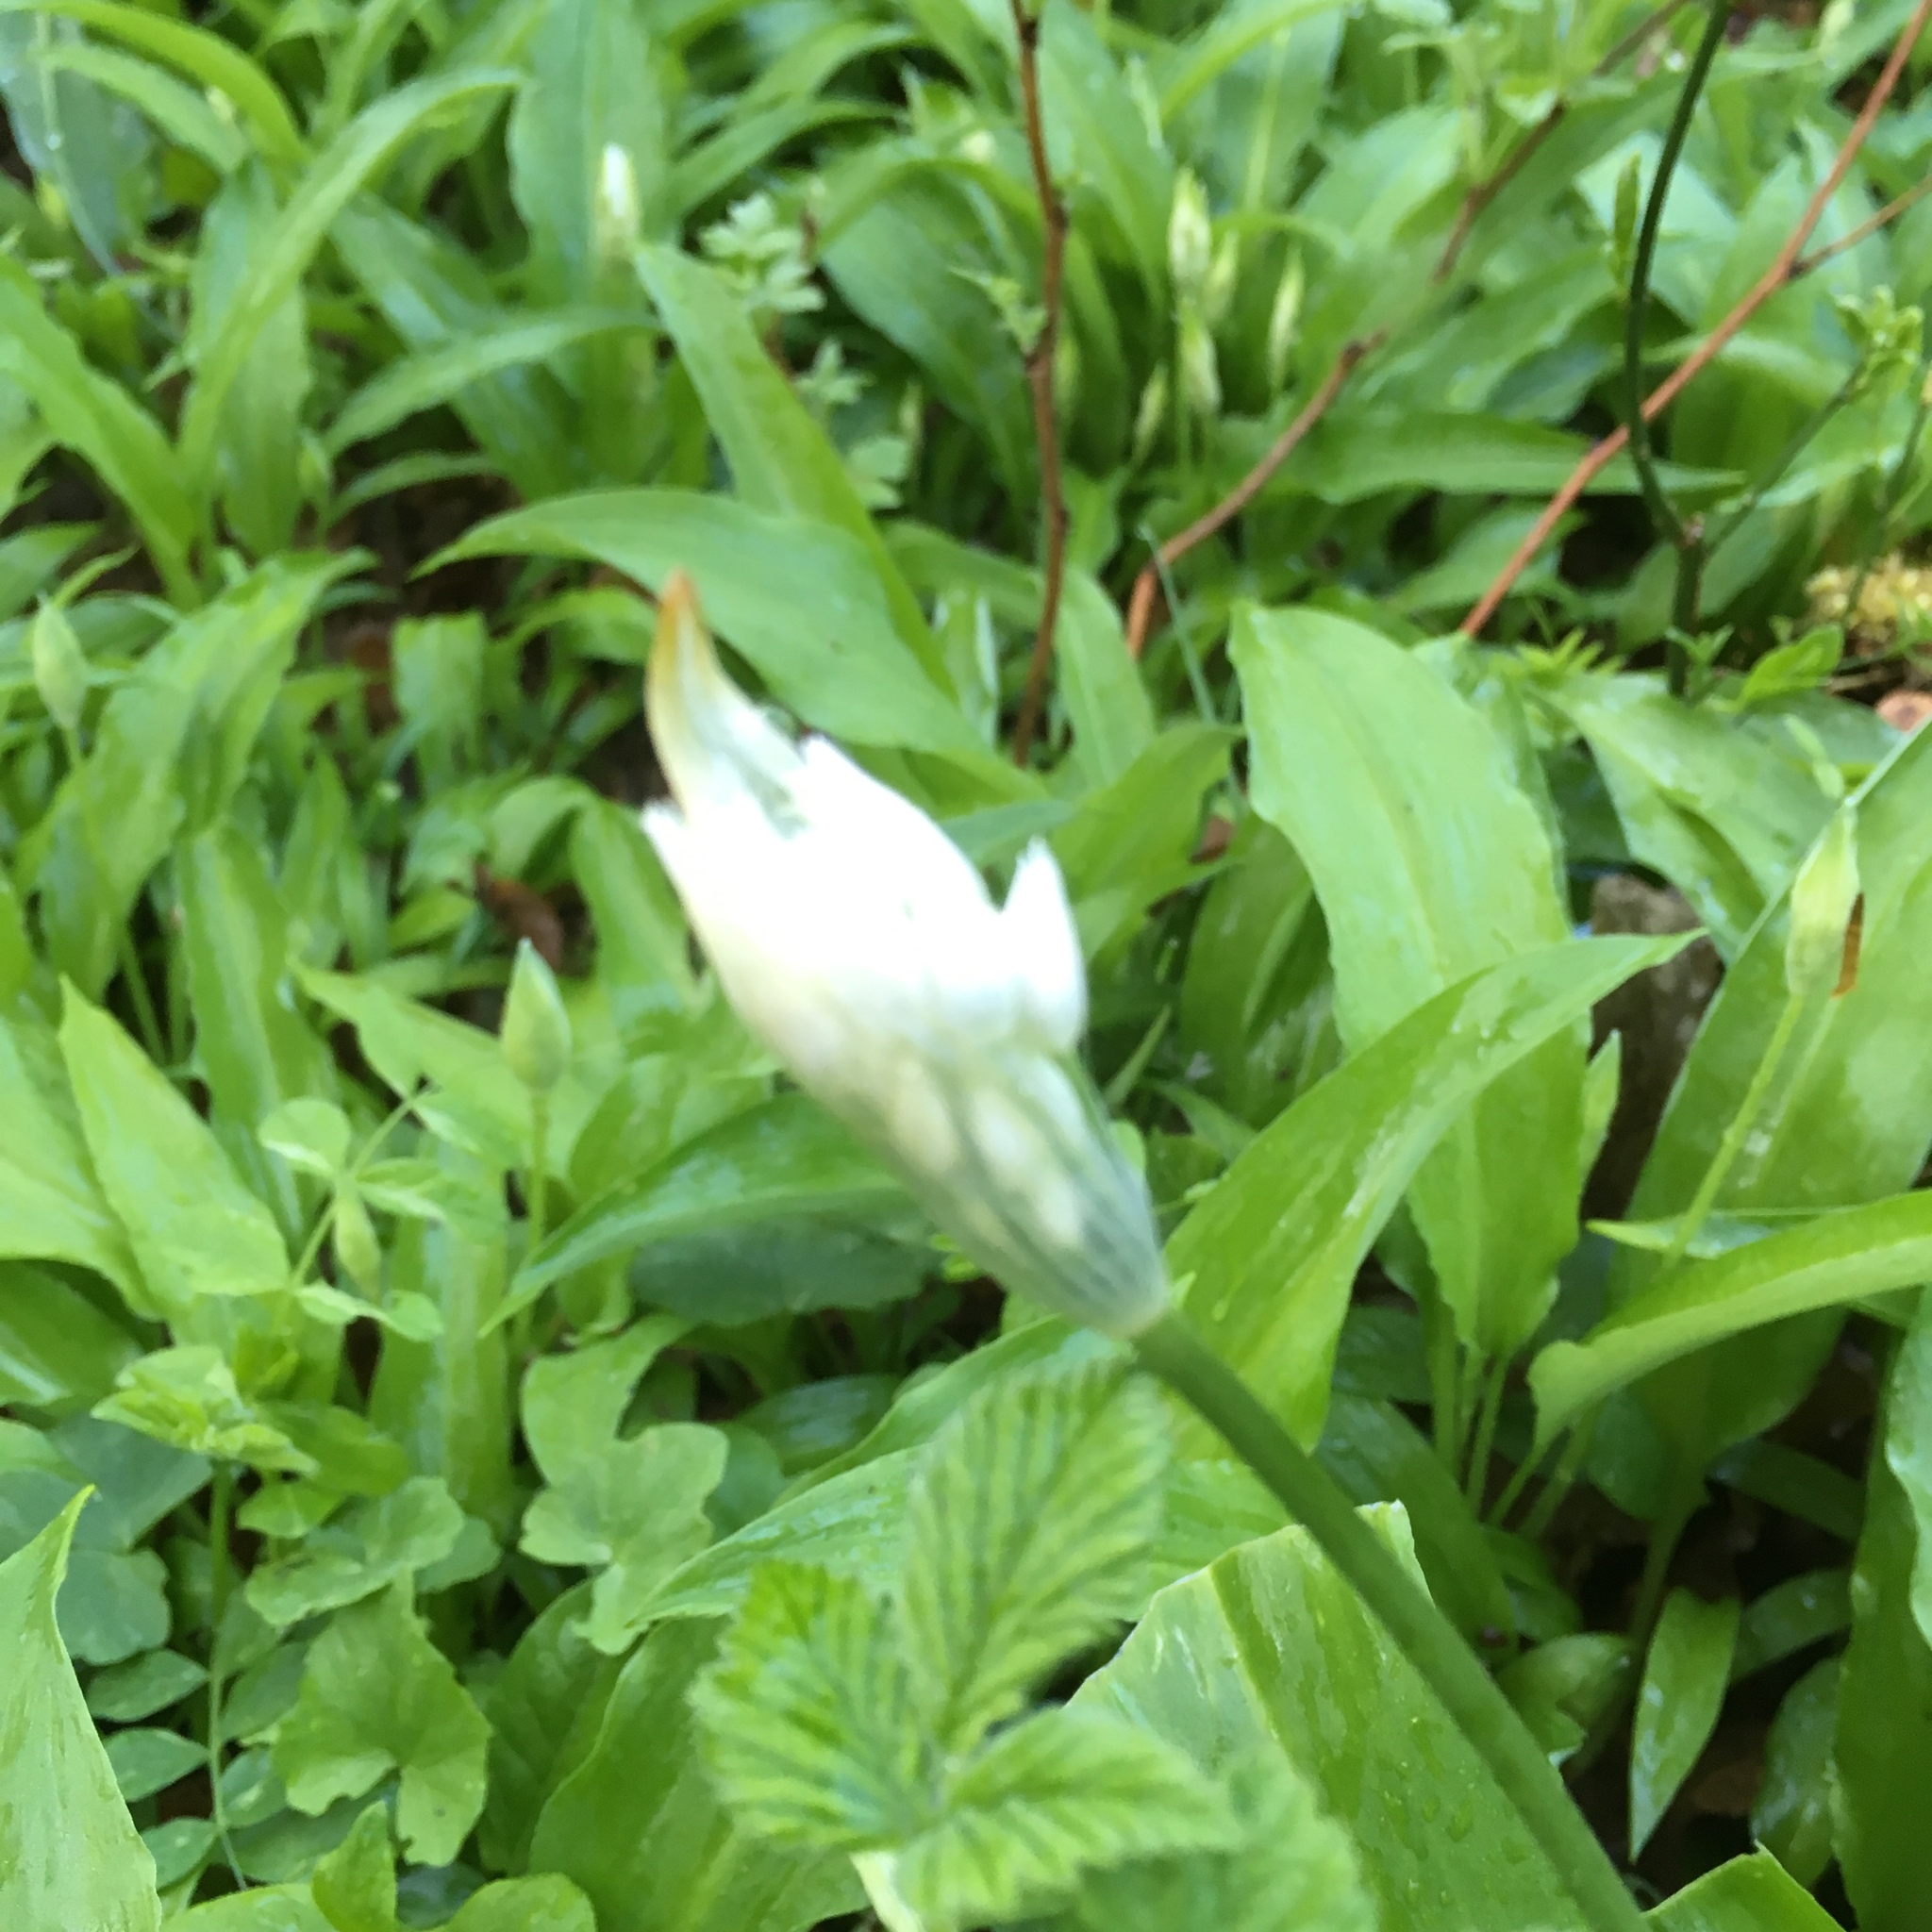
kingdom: Plantae
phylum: Tracheophyta
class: Liliopsida
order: Asparagales
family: Amaryllidaceae
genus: Allium
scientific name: Allium ursinum
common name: Ramsons
